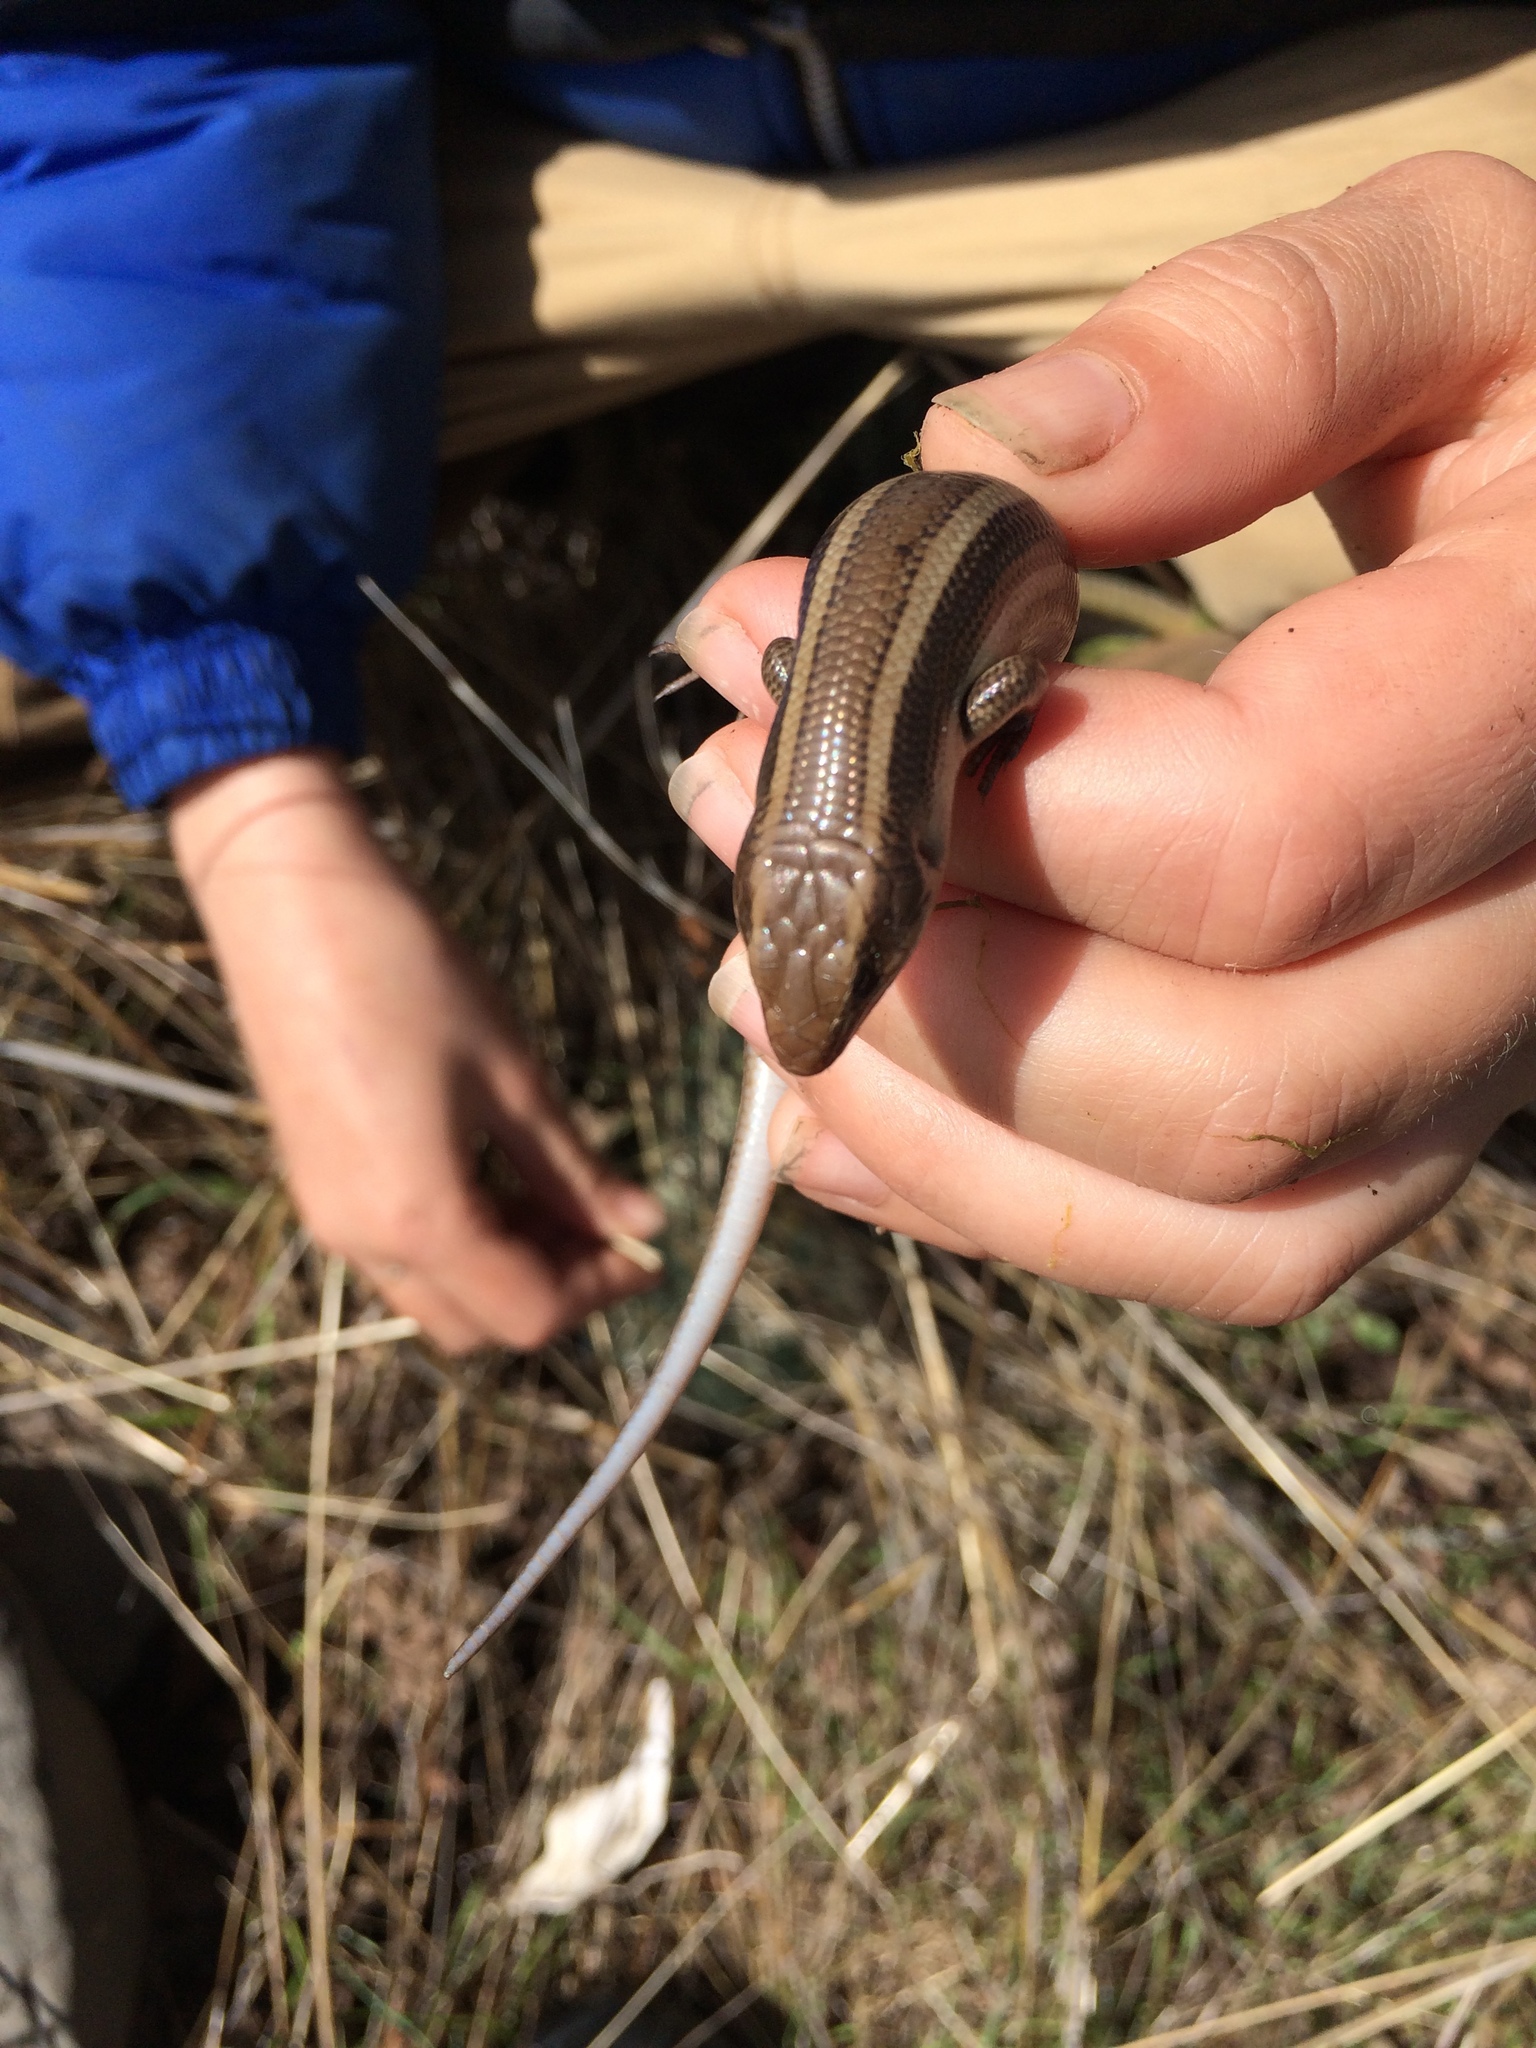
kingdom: Animalia
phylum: Chordata
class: Squamata
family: Scincidae
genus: Plestiodon
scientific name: Plestiodon skiltonianus
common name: Coronado island skink [interparietalis]
